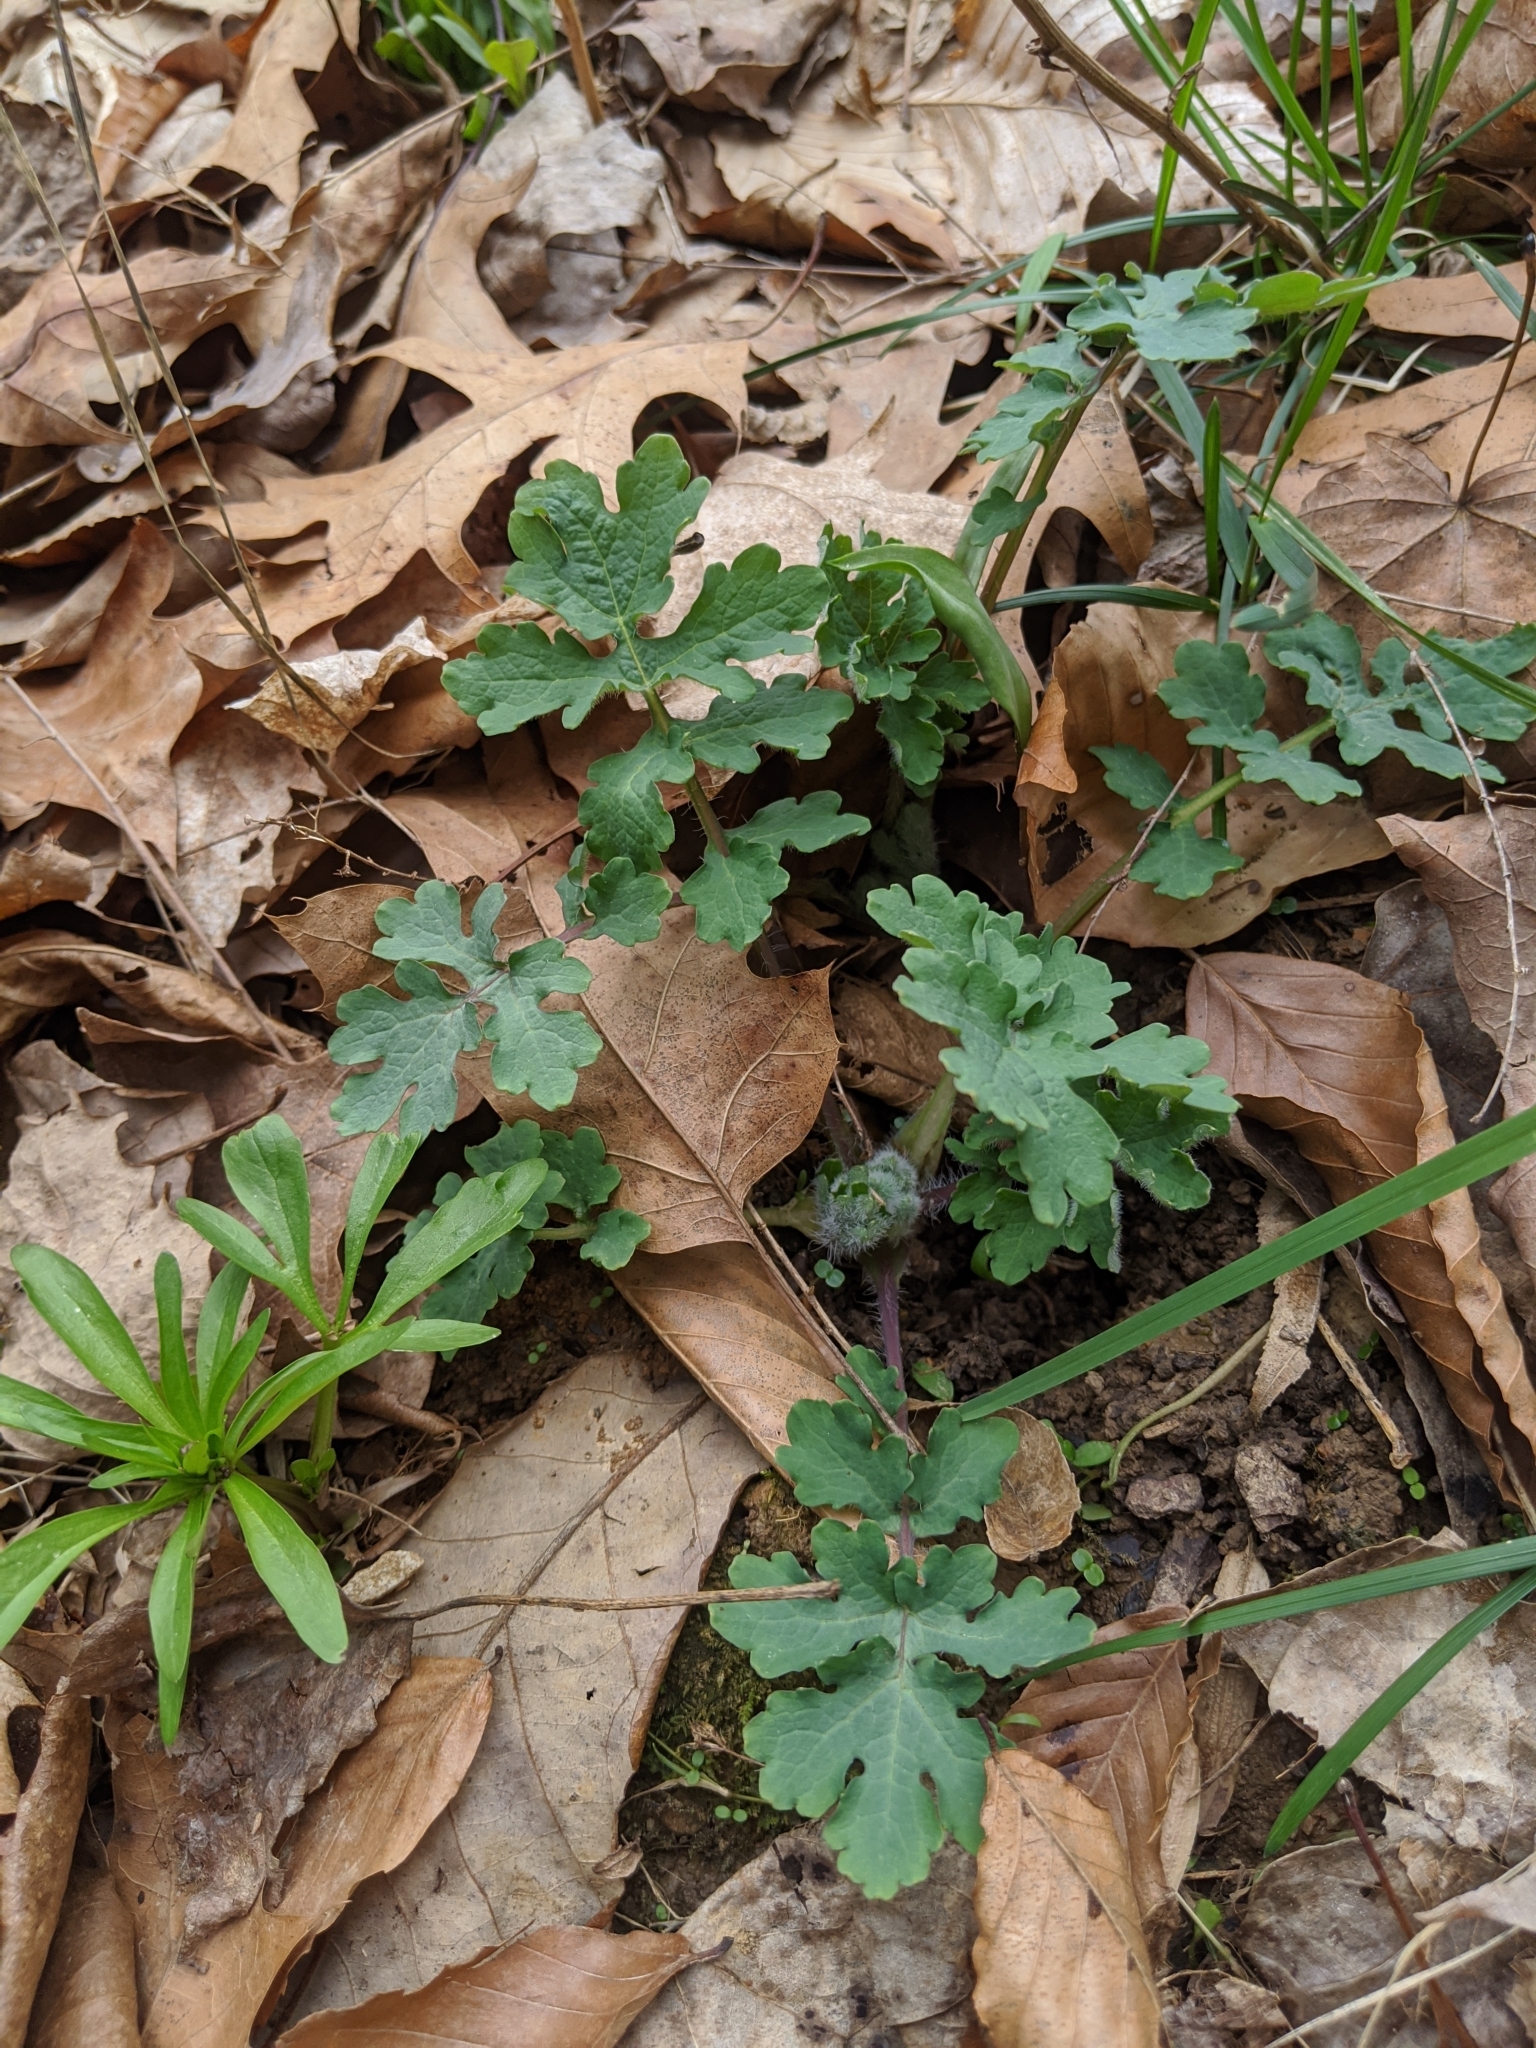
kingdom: Plantae
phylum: Tracheophyta
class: Magnoliopsida
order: Ranunculales
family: Papaveraceae
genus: Stylophorum
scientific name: Stylophorum diphyllum
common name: Celandine poppy
